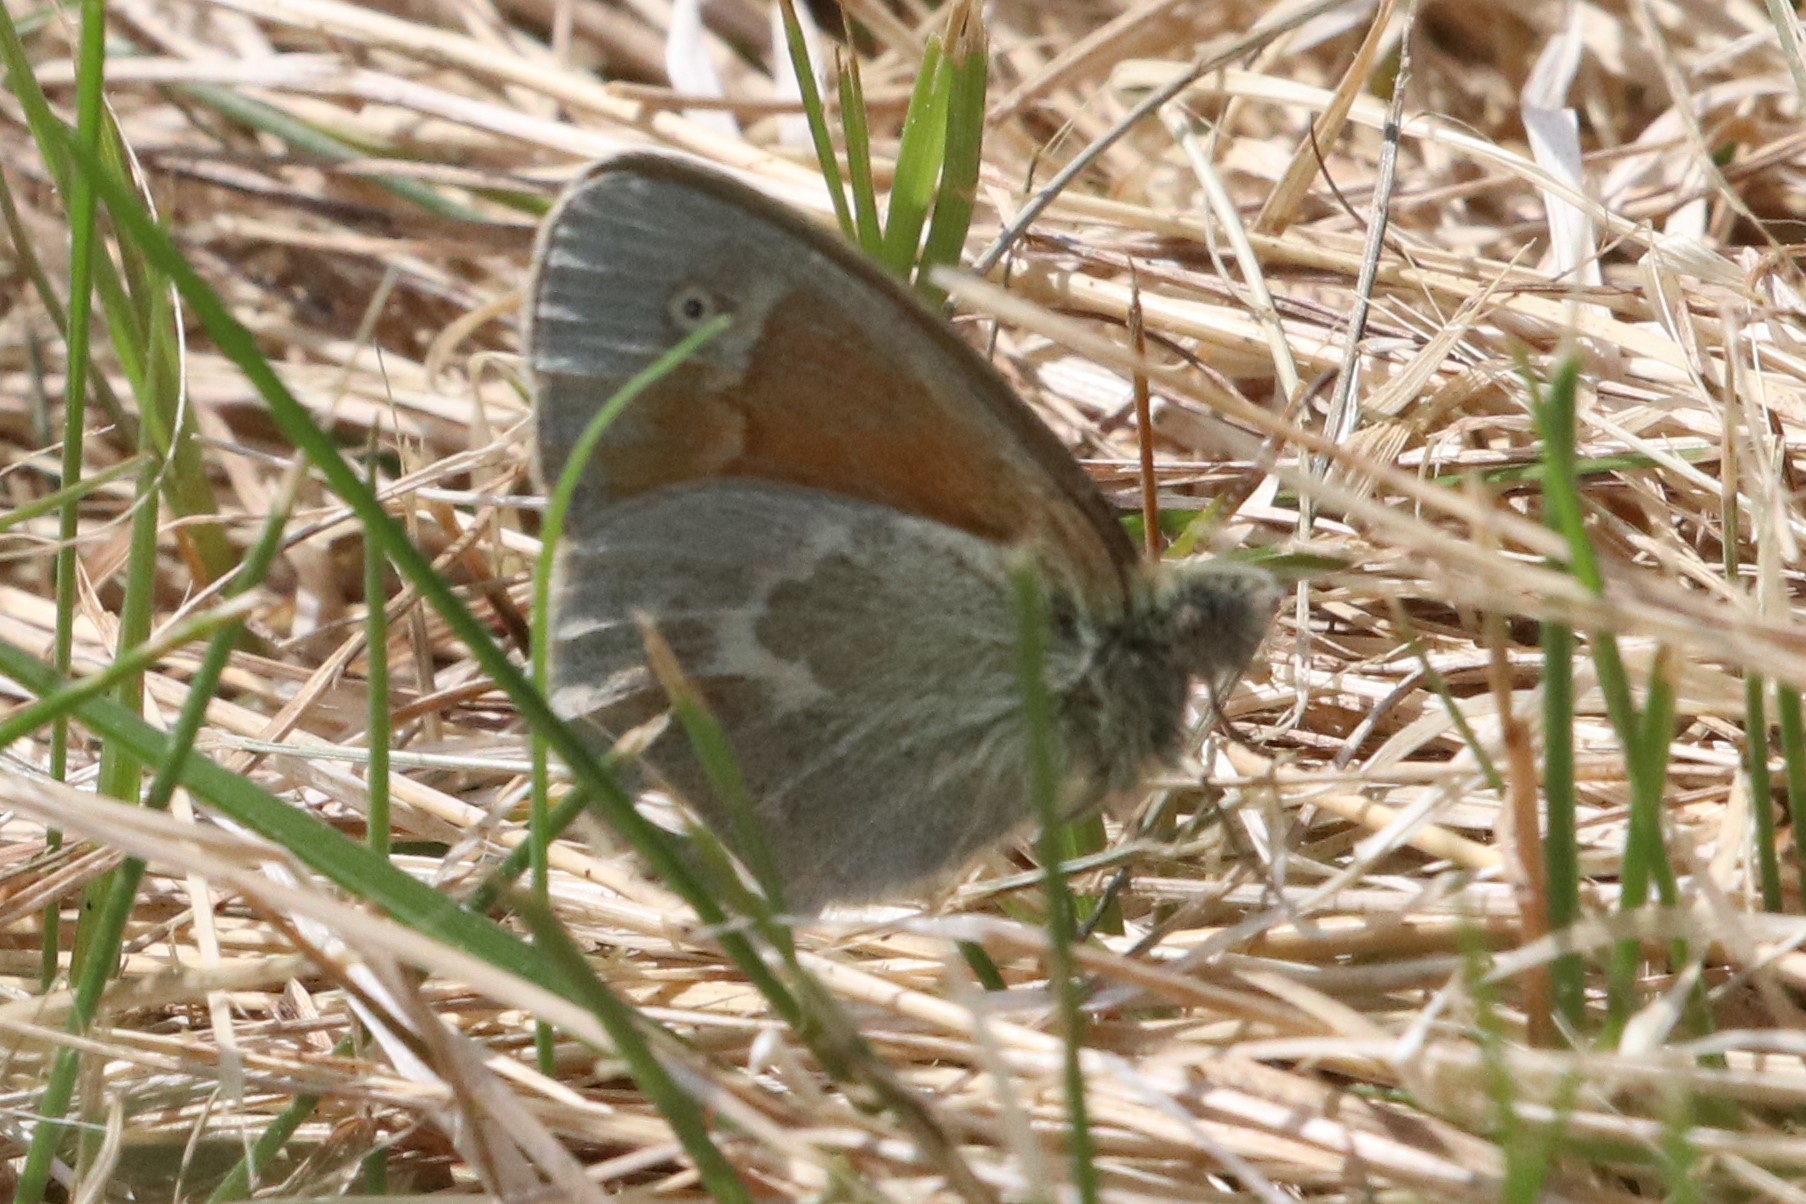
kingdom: Animalia
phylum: Arthropoda
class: Insecta
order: Lepidoptera
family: Nymphalidae
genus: Coenonympha
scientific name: Coenonympha california
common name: Common ringlet
